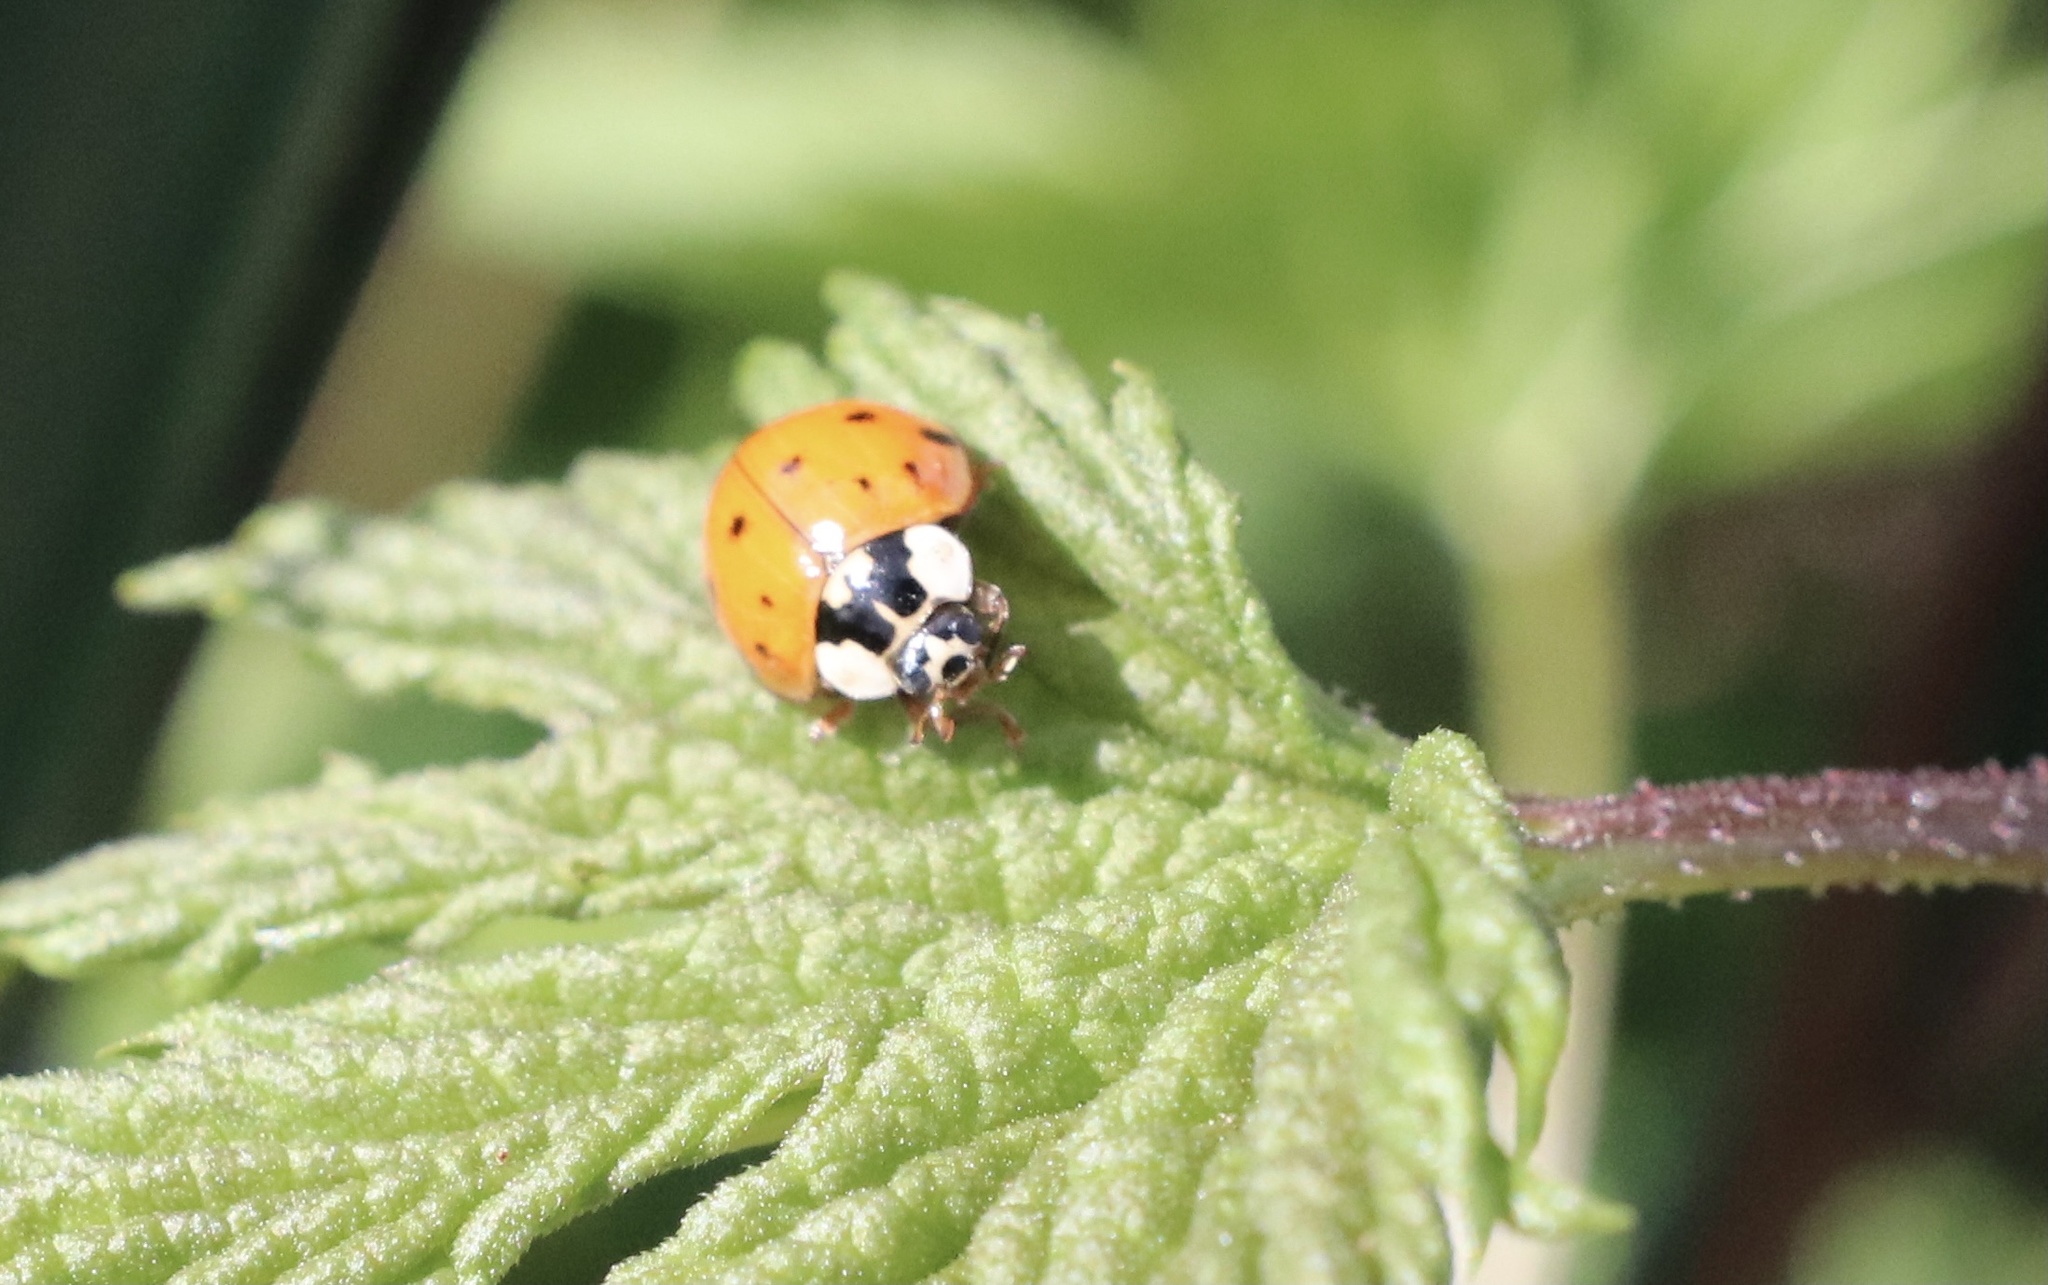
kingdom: Animalia
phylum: Arthropoda
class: Insecta
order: Coleoptera
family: Coccinellidae
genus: Harmonia
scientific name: Harmonia axyridis
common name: Harlequin ladybird
